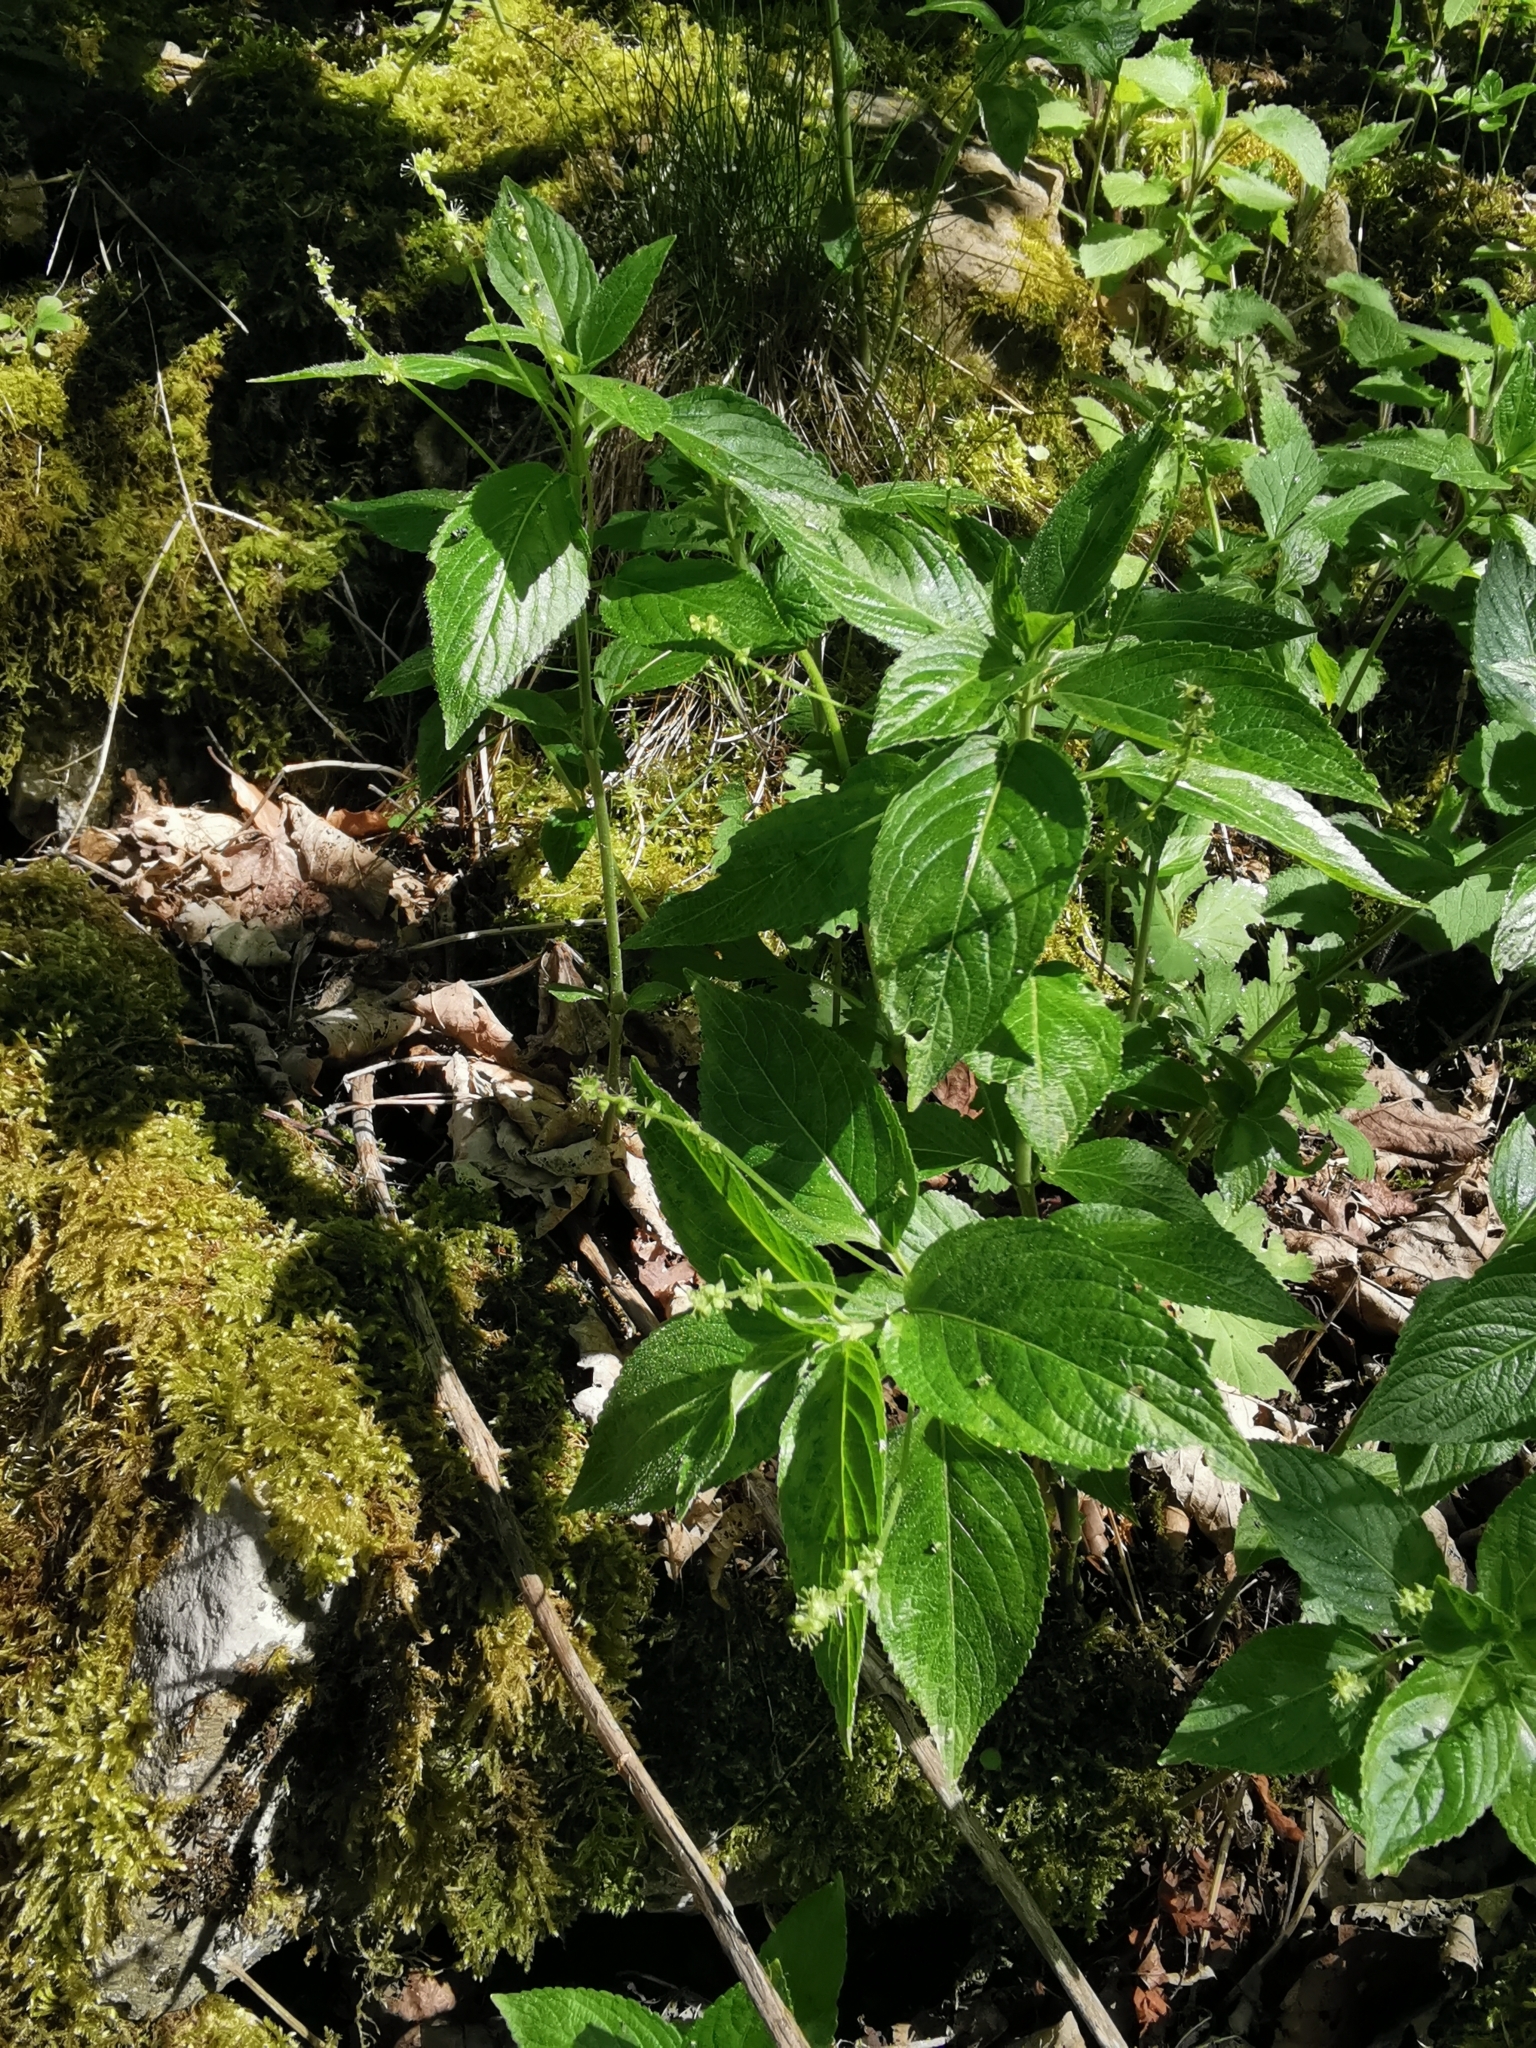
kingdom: Plantae
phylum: Tracheophyta
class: Magnoliopsida
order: Malpighiales
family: Euphorbiaceae
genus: Mercurialis
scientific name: Mercurialis perennis
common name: Dog mercury
